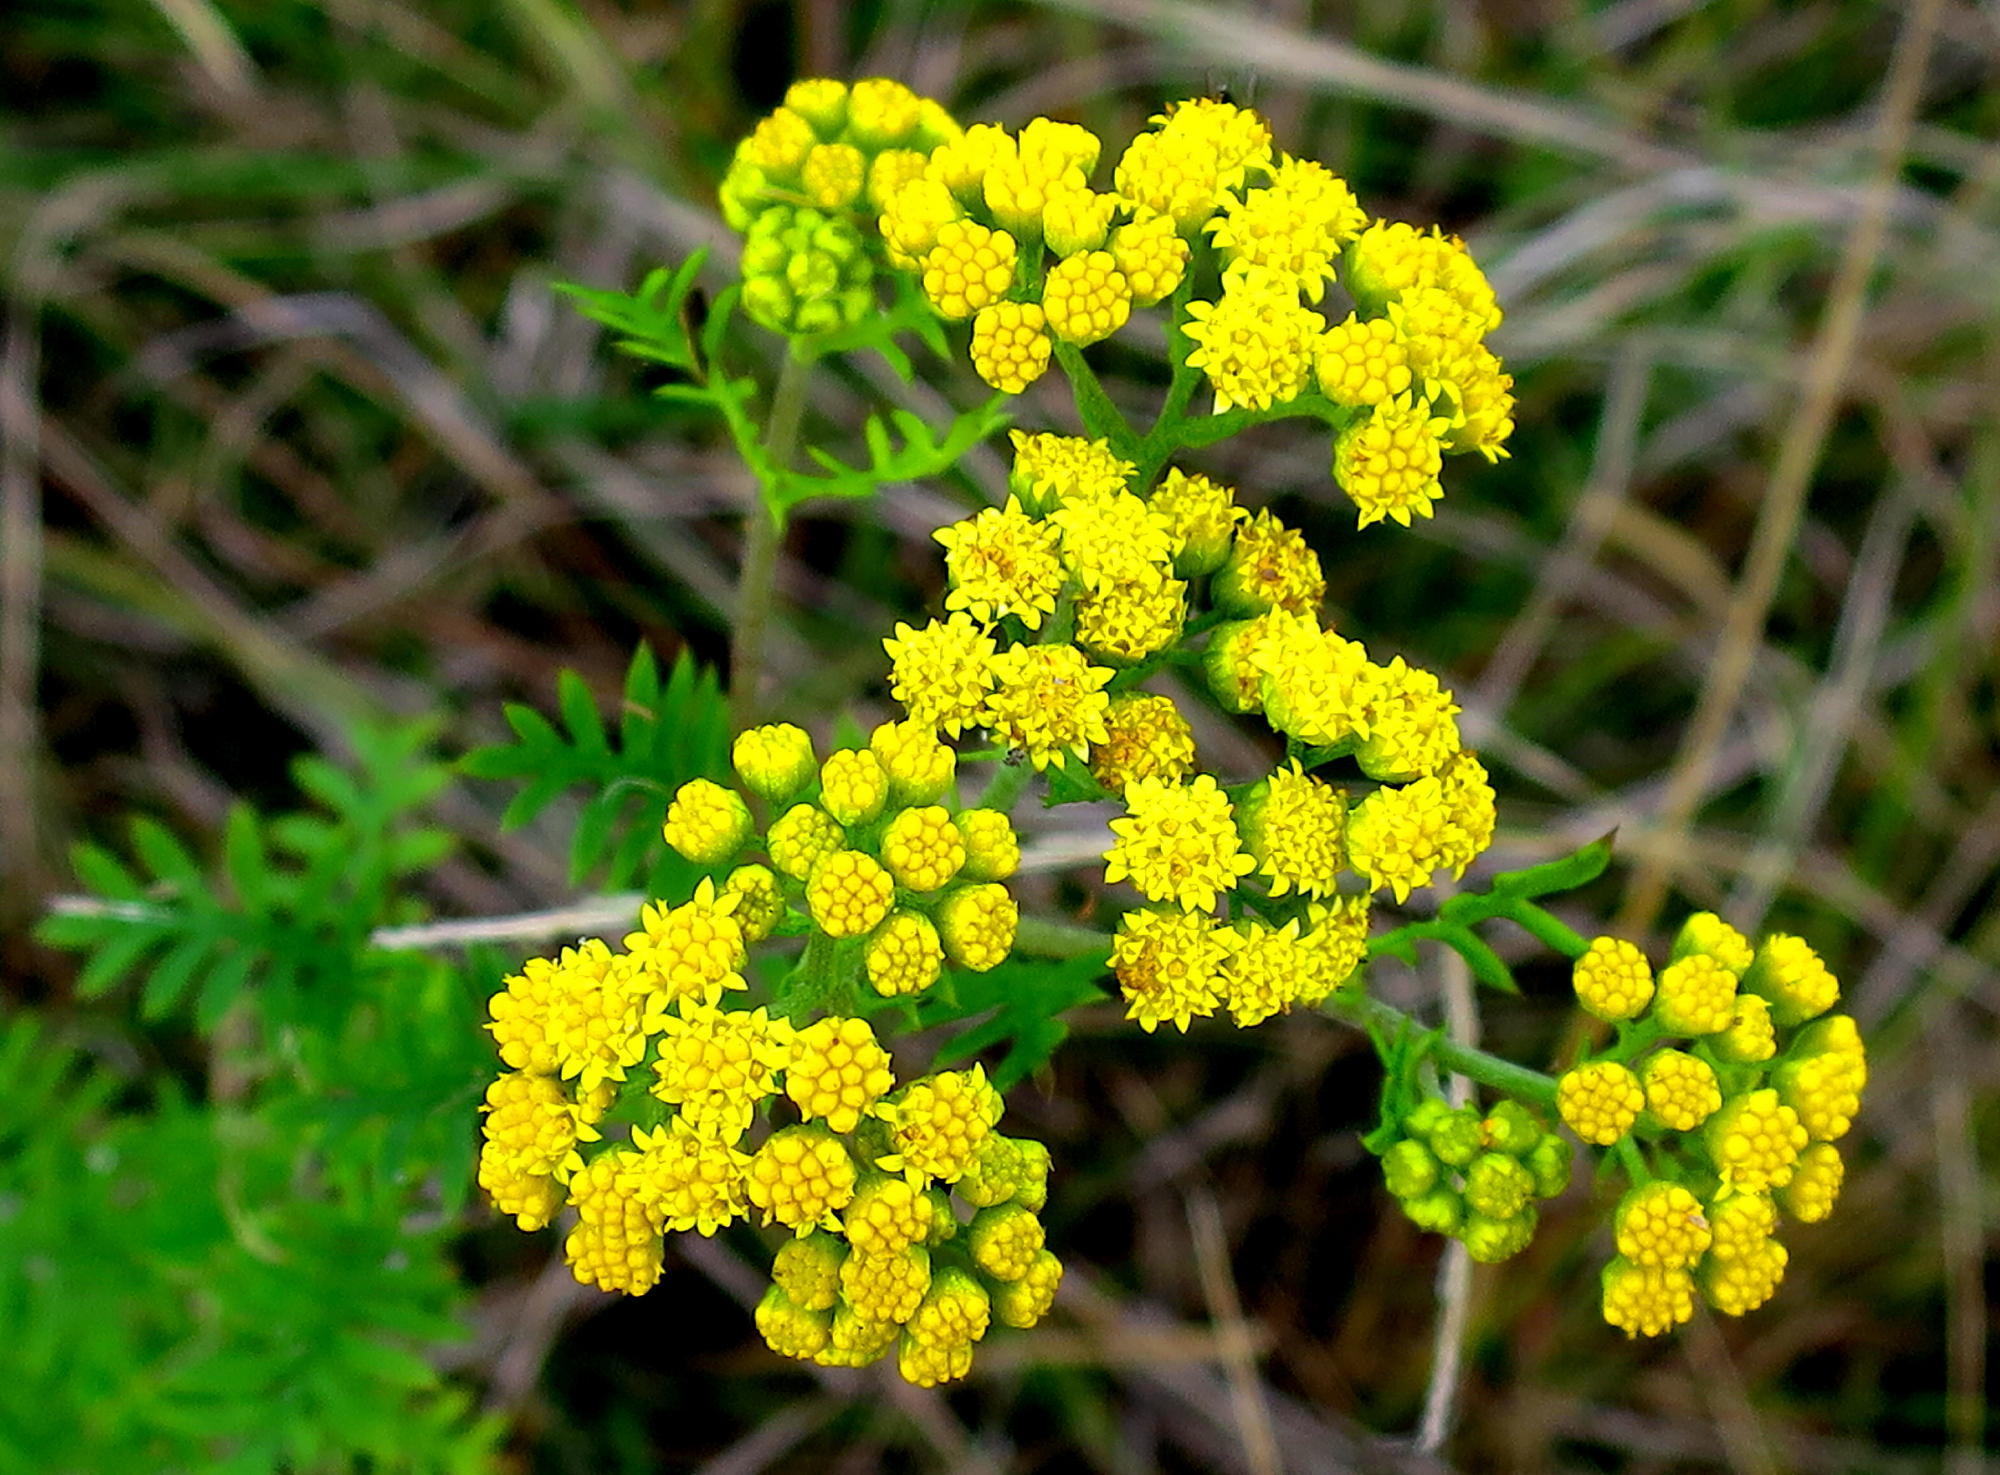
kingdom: Plantae
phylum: Tracheophyta
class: Magnoliopsida
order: Asterales
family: Asteraceae
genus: Hippia
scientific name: Hippia frutescens
